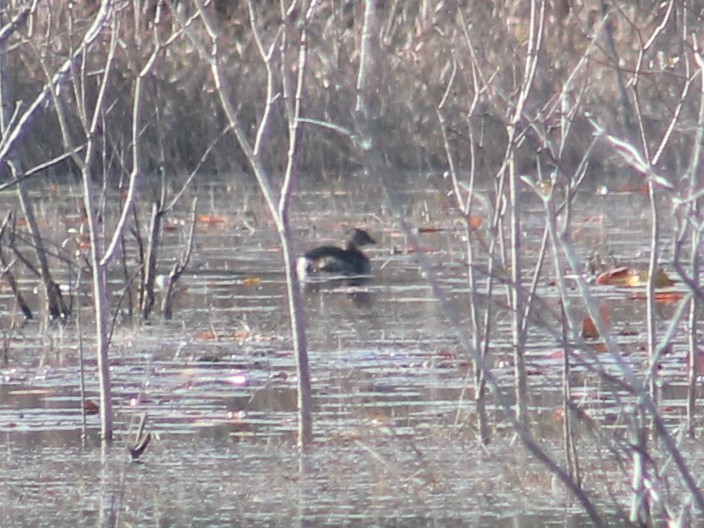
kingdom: Animalia
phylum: Chordata
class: Aves
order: Podicipediformes
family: Podicipedidae
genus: Podilymbus
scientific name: Podilymbus podiceps
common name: Pied-billed grebe
